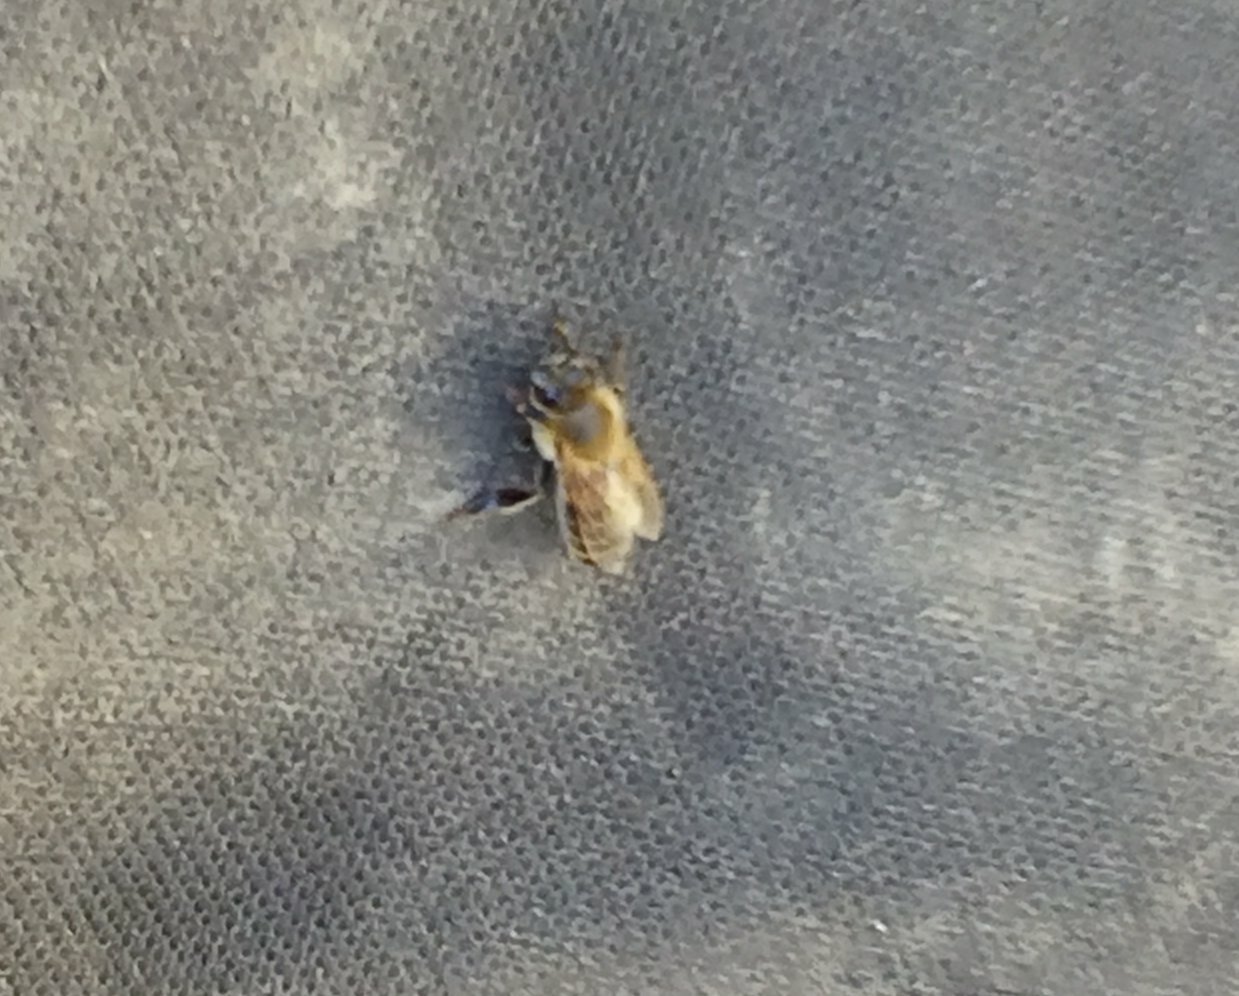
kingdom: Animalia
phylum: Arthropoda
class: Insecta
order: Hymenoptera
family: Apidae
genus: Apis
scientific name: Apis mellifera
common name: Honey bee
